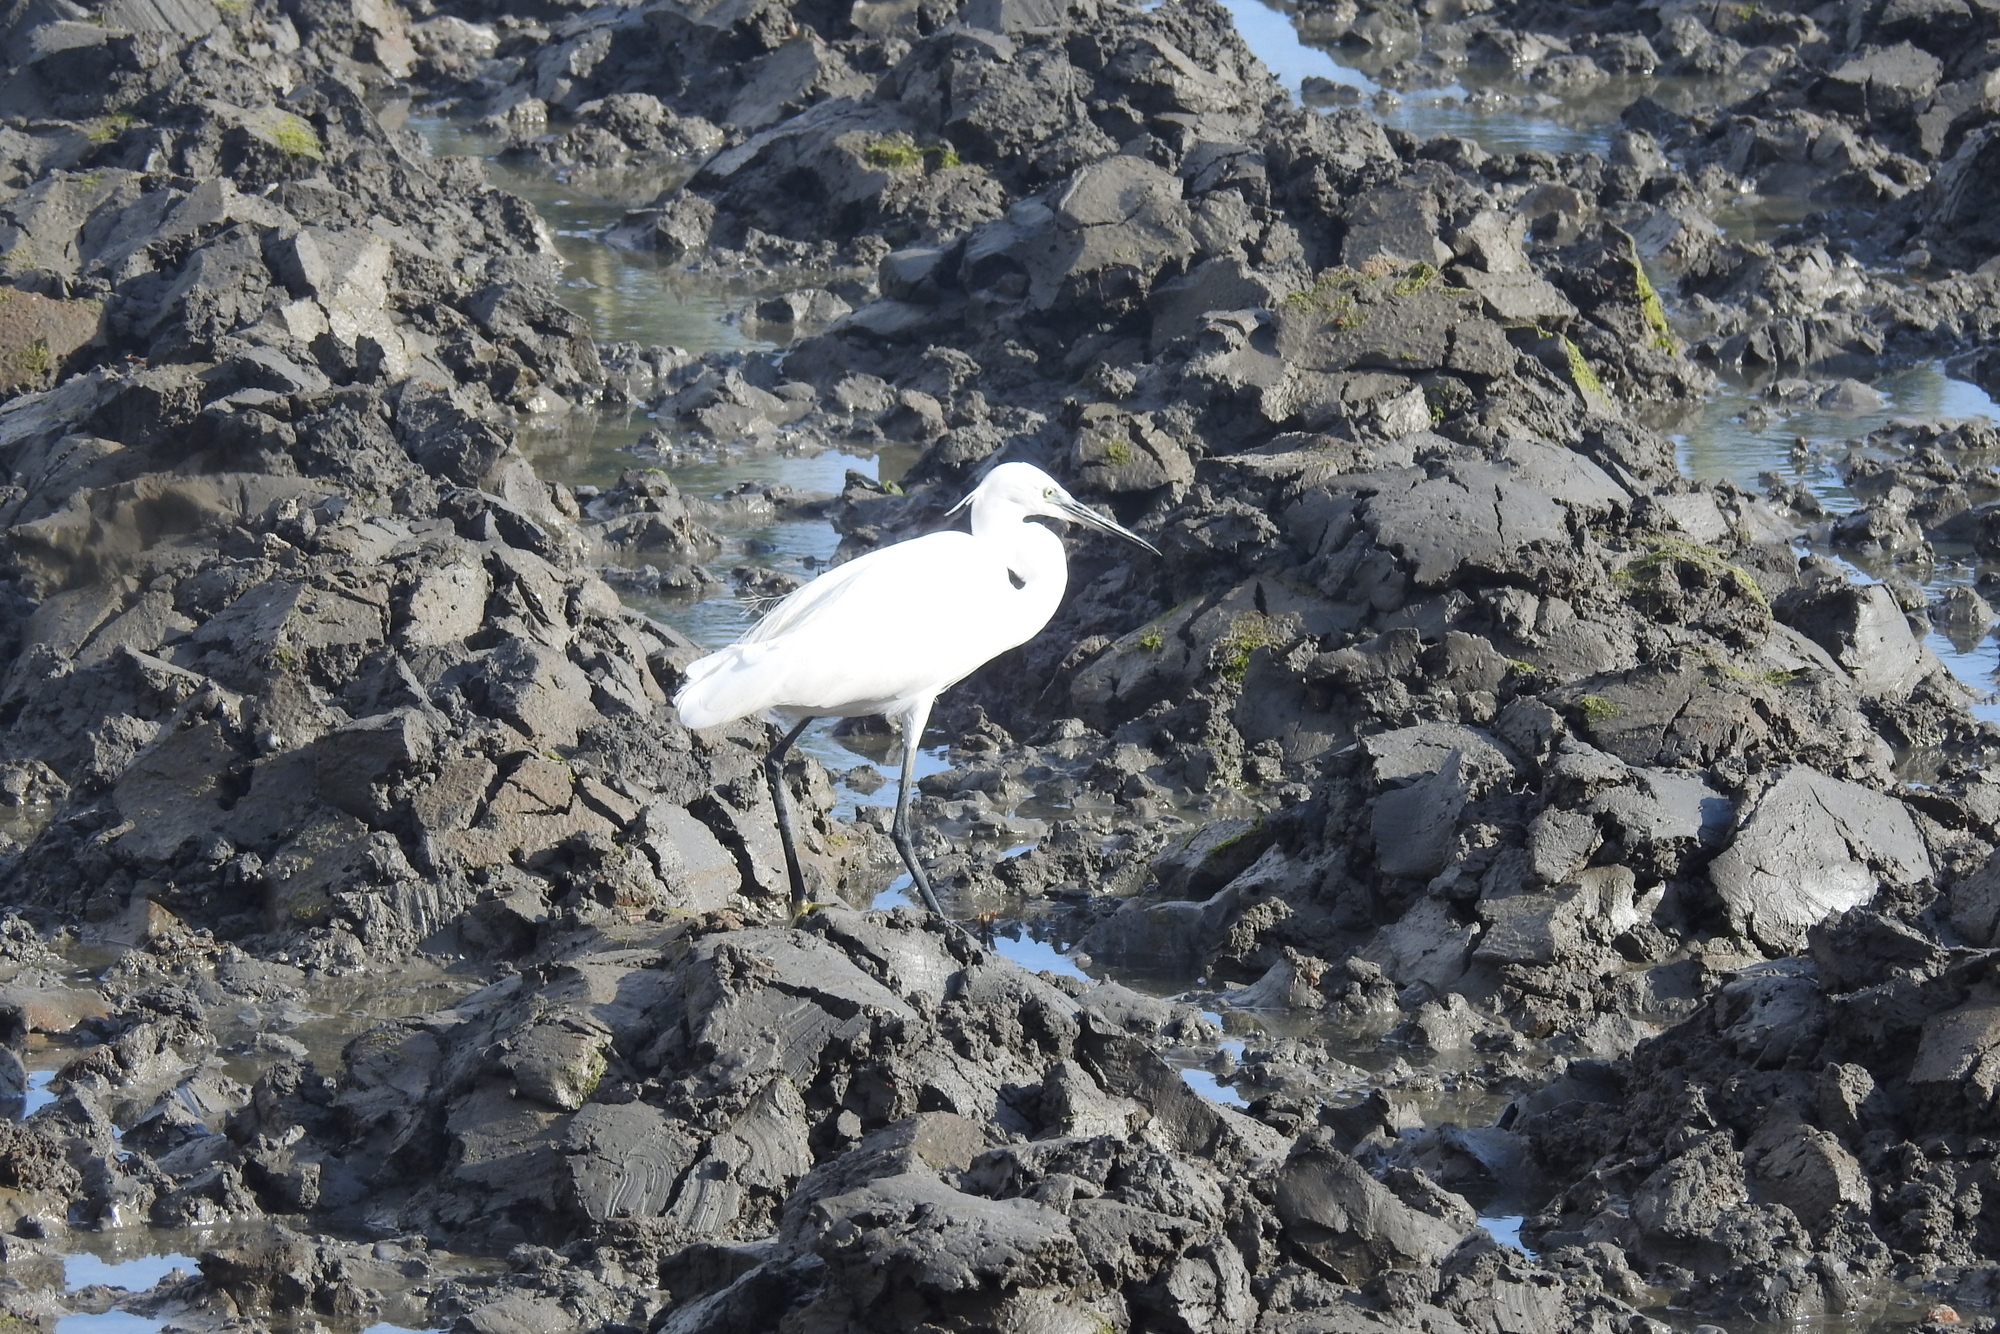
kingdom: Animalia
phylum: Chordata
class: Aves
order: Pelecaniformes
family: Ardeidae
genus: Egretta
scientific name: Egretta garzetta
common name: Little egret
